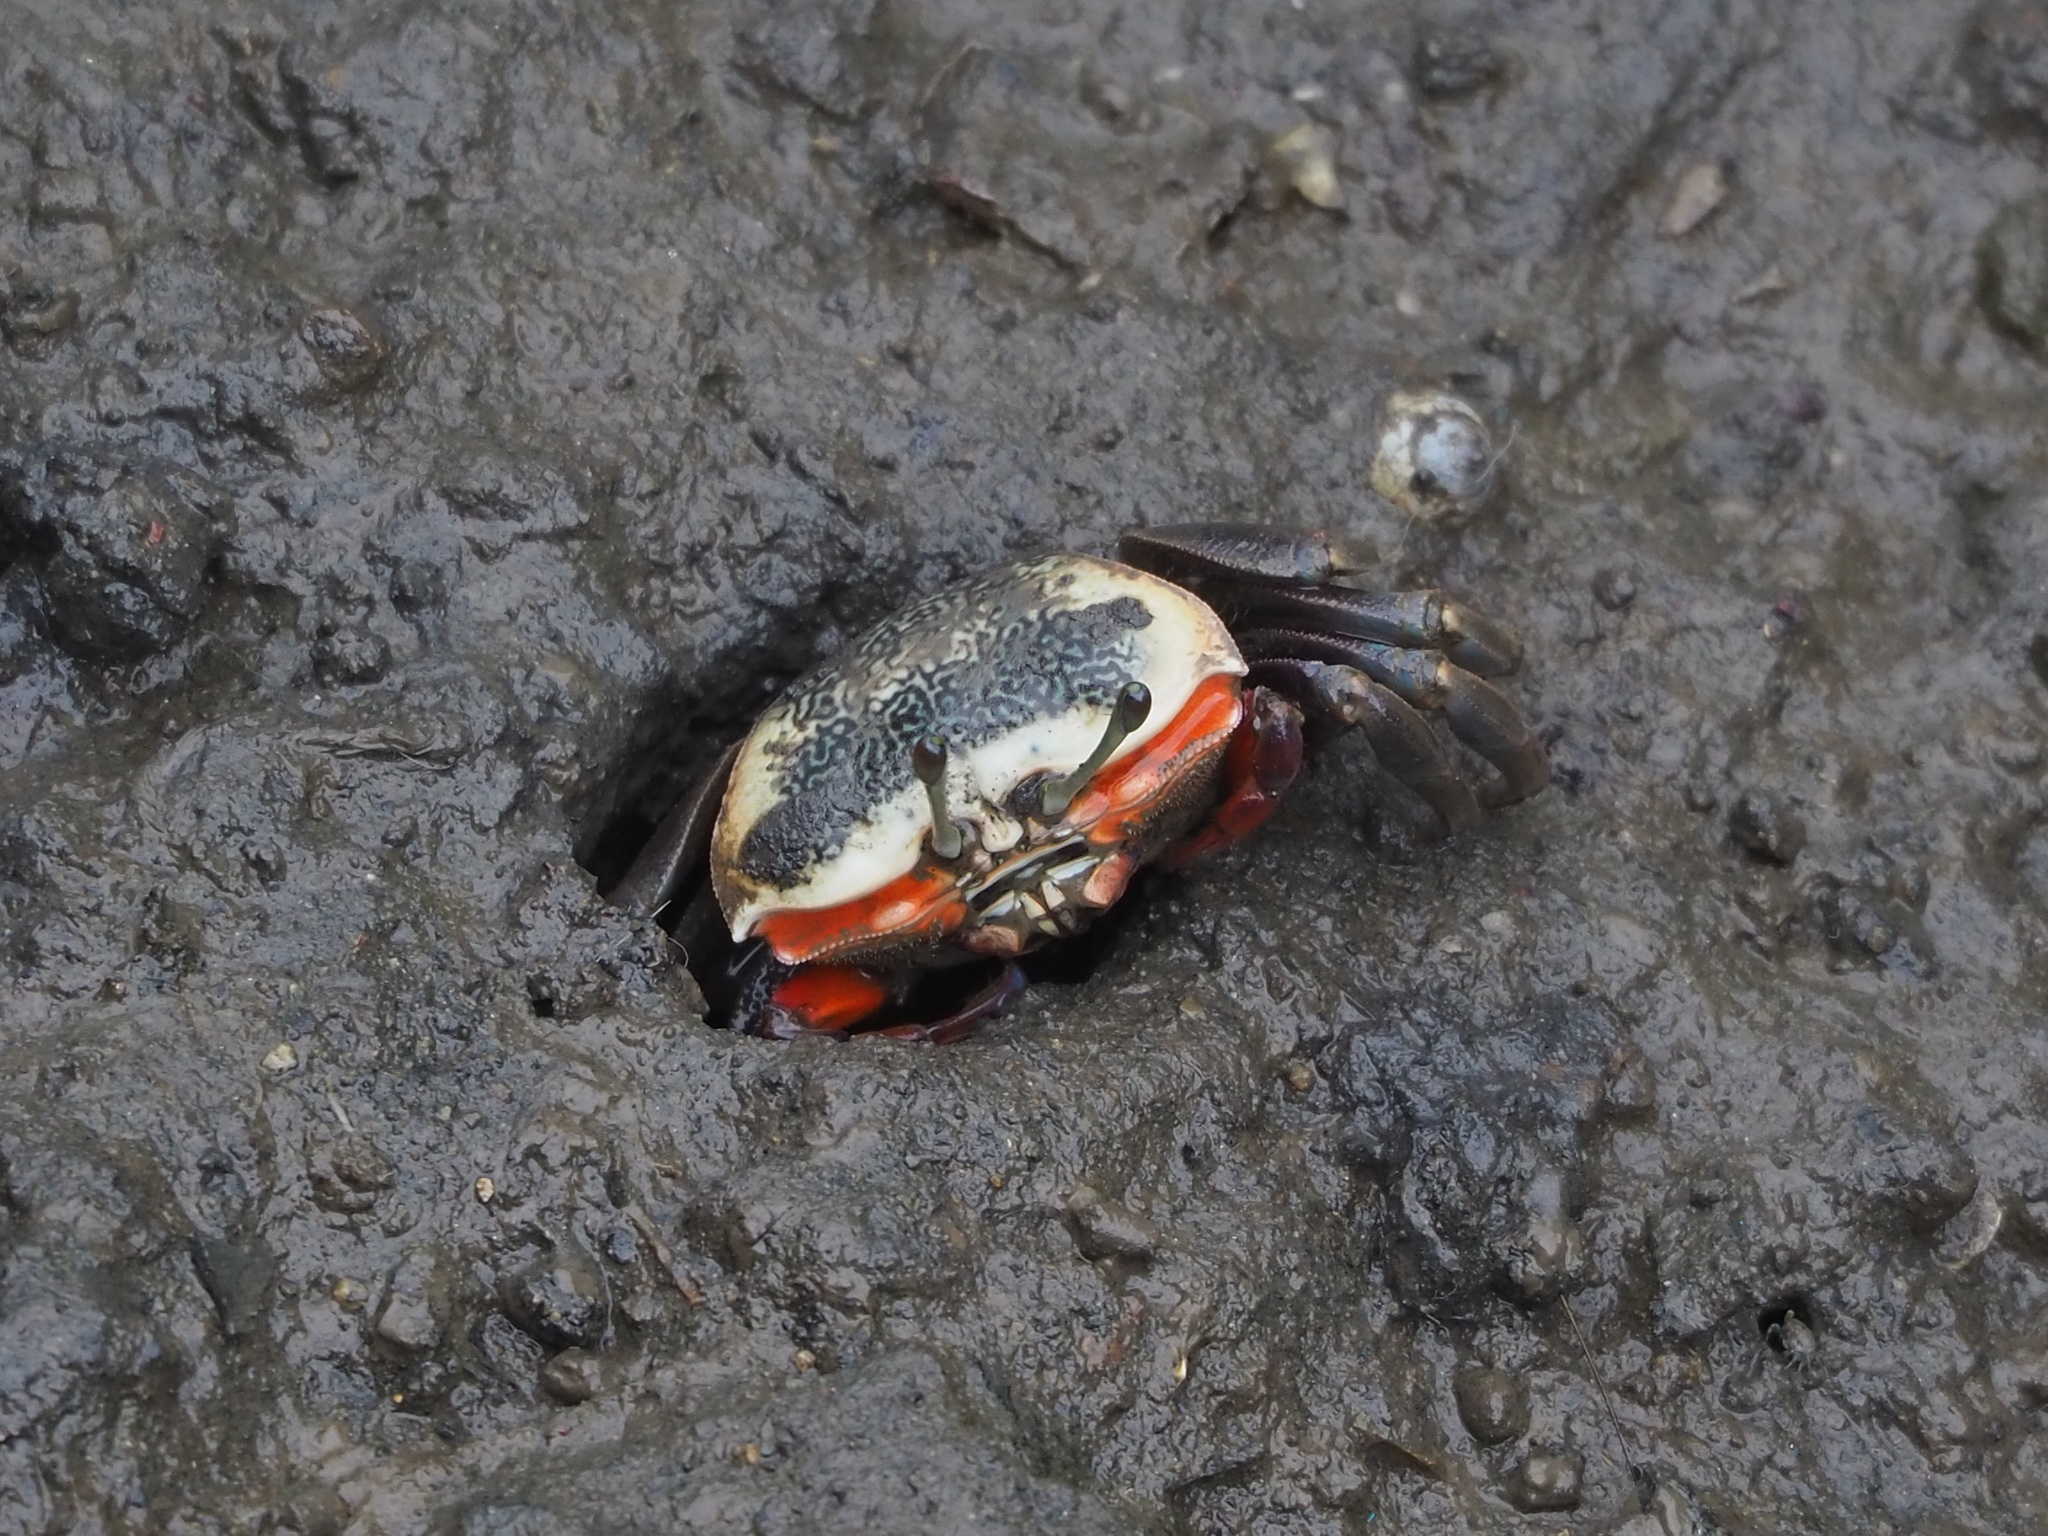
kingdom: Animalia
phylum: Arthropoda
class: Malacostraca
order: Decapoda
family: Ocypodidae
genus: Tubuca
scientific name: Tubuca arcuata
